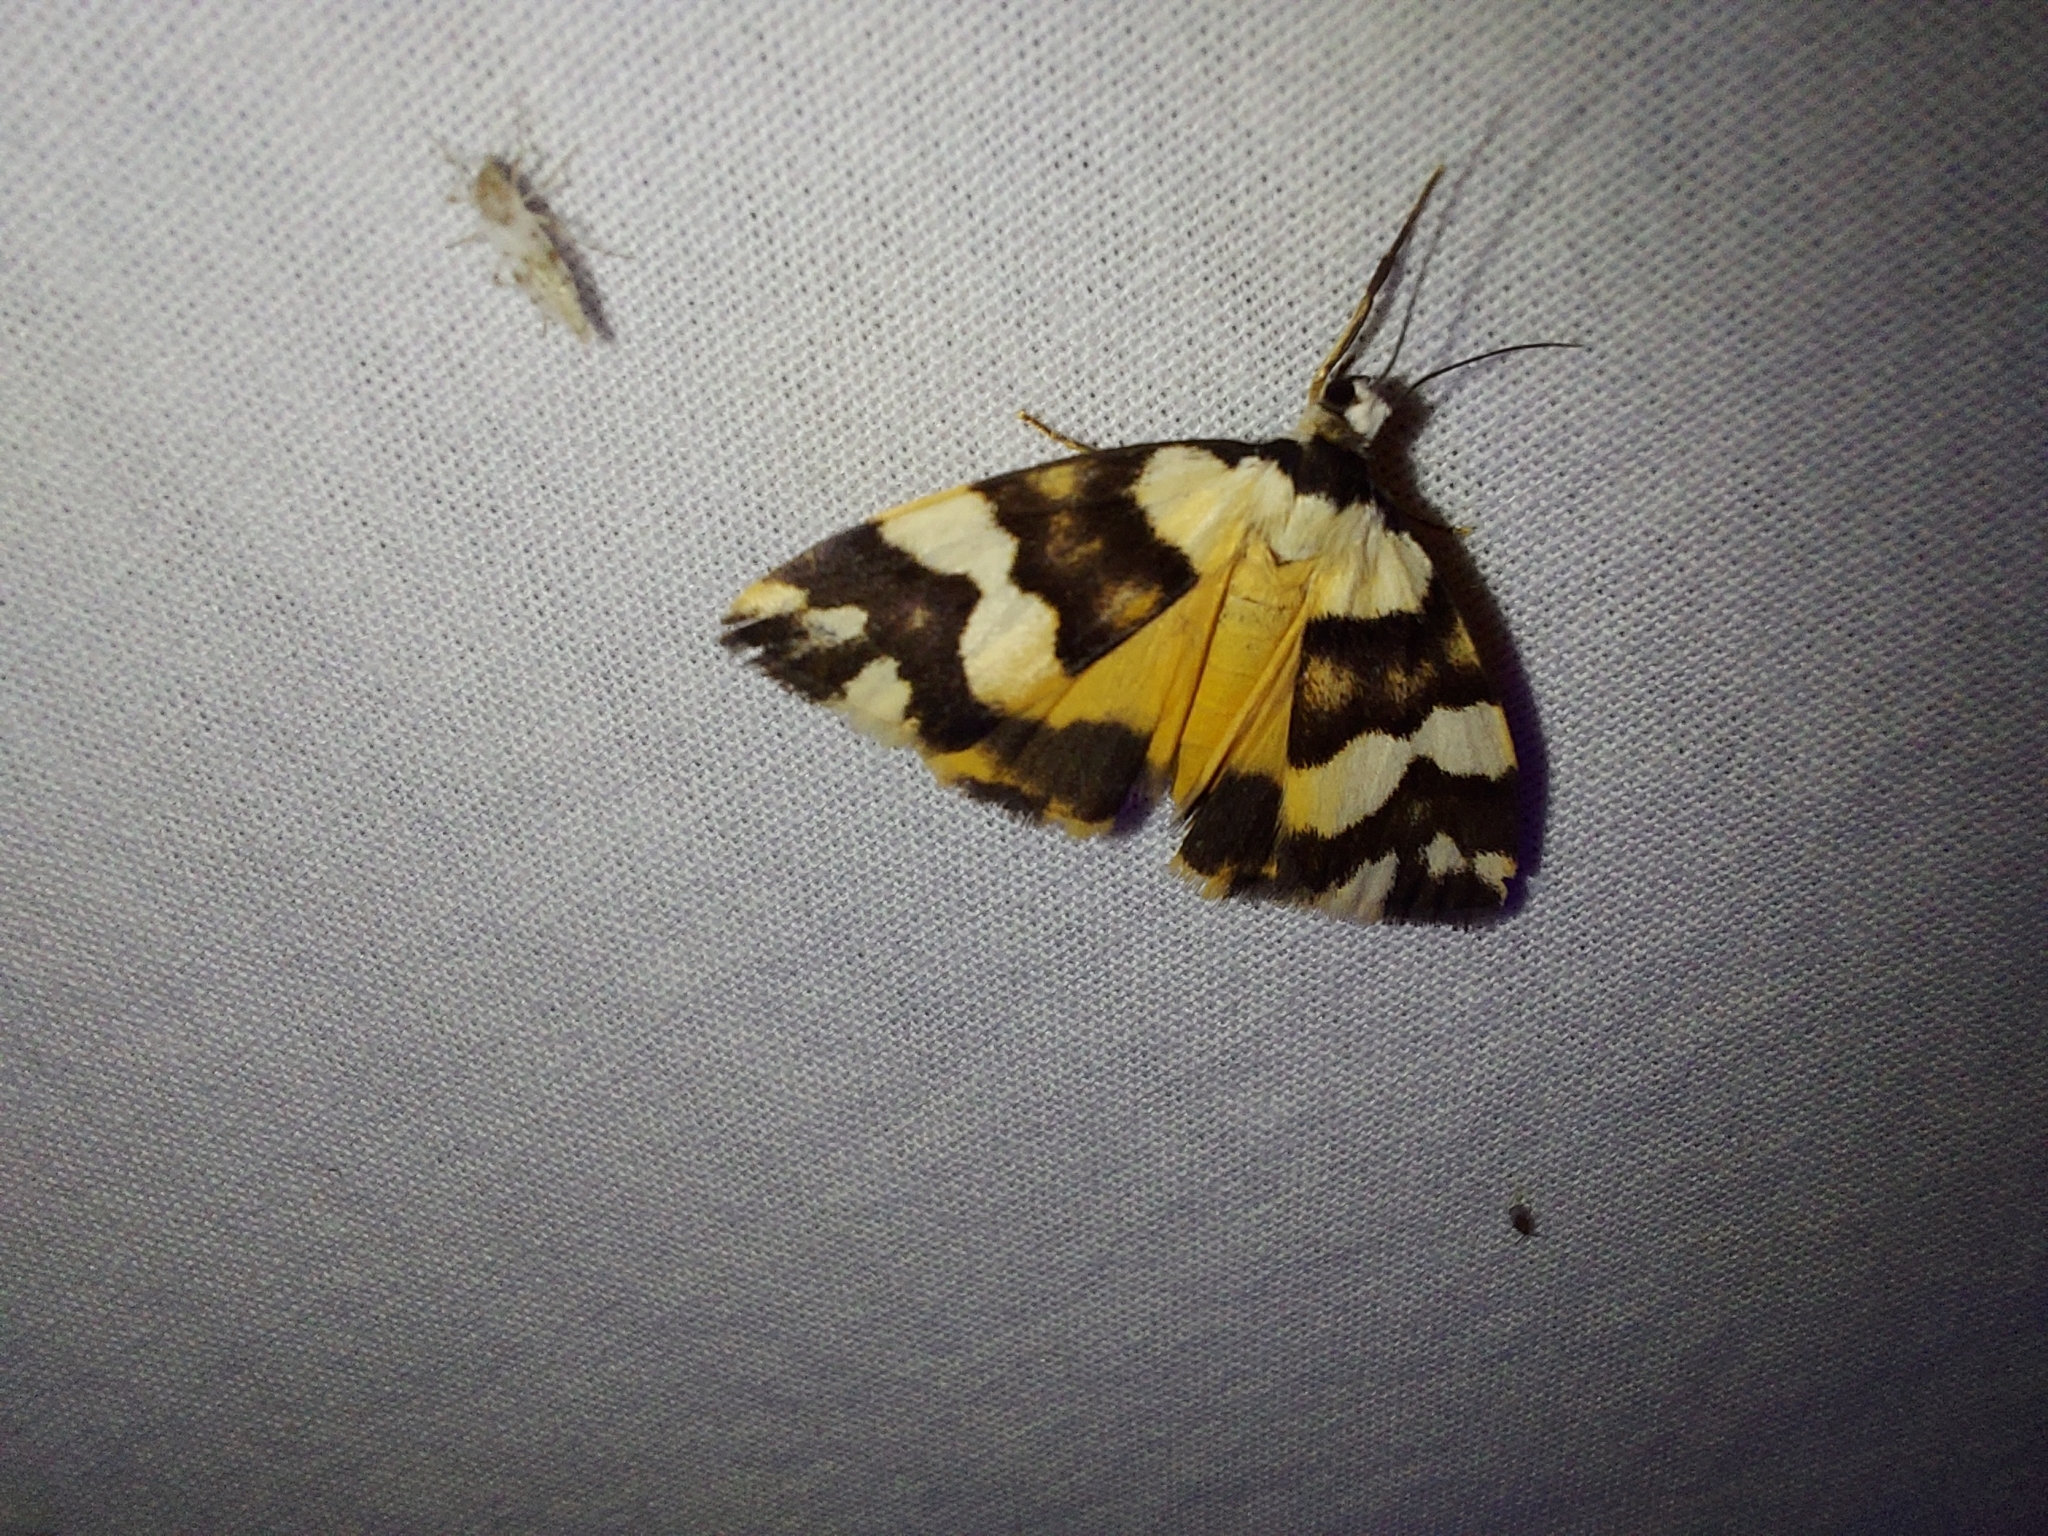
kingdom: Animalia
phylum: Arthropoda
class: Insecta
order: Lepidoptera
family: Erebidae
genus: Termessa
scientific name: Termessa gratiosa
